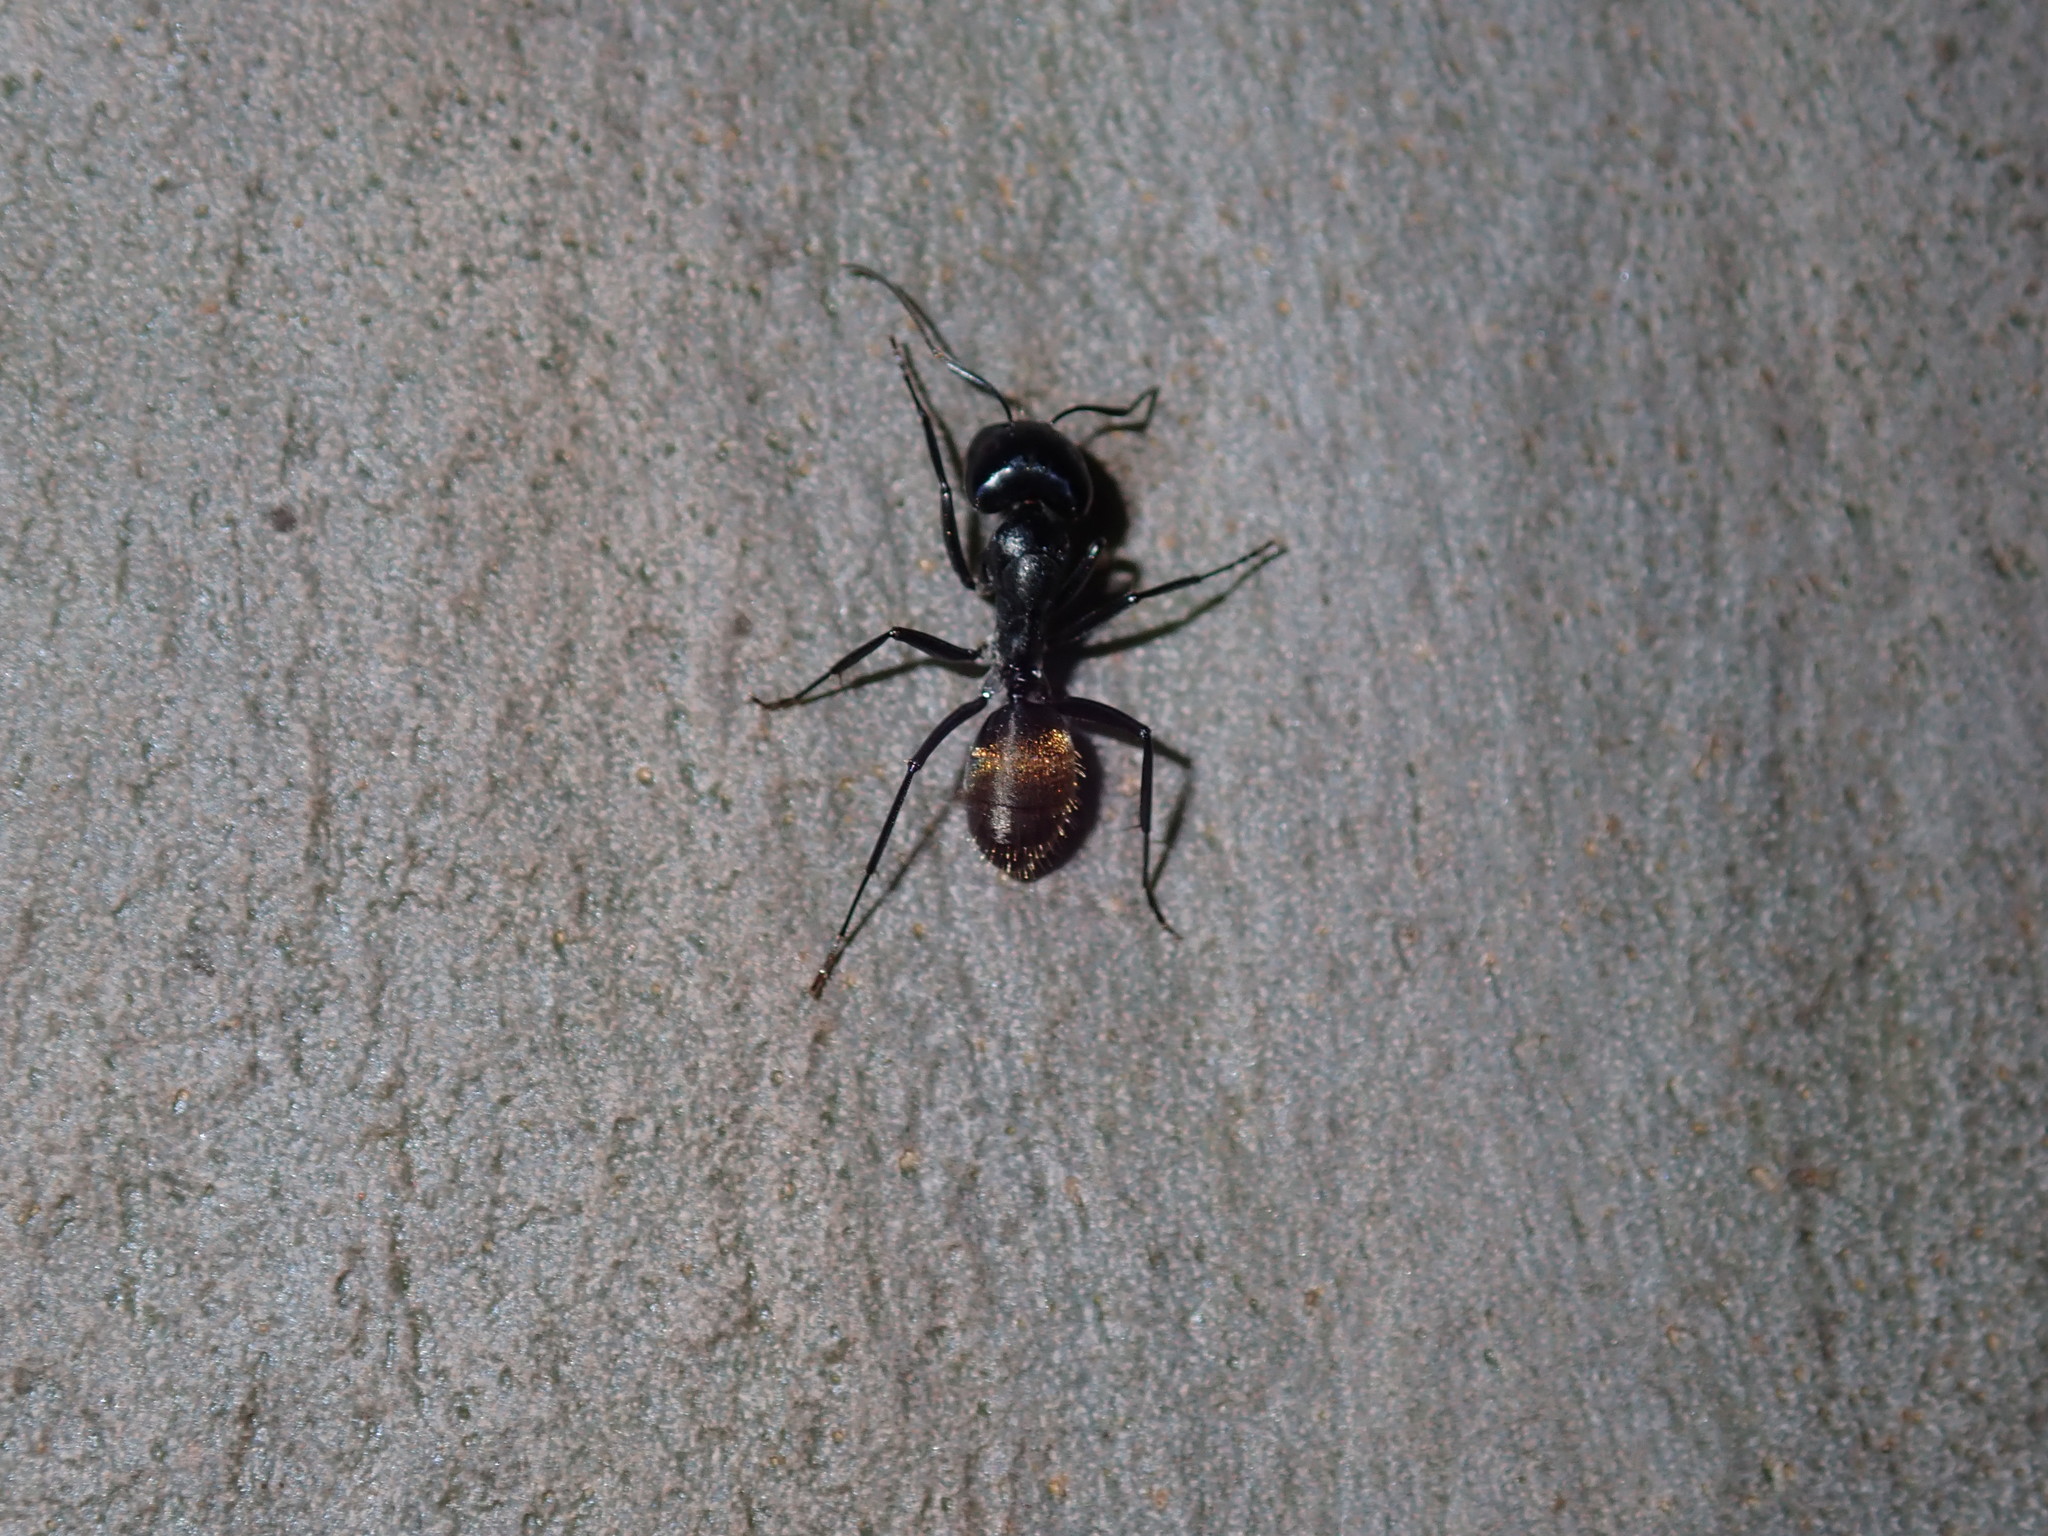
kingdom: Animalia
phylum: Arthropoda
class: Insecta
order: Hymenoptera
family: Formicidae
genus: Camponotus
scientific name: Camponotus aeneopilosus
